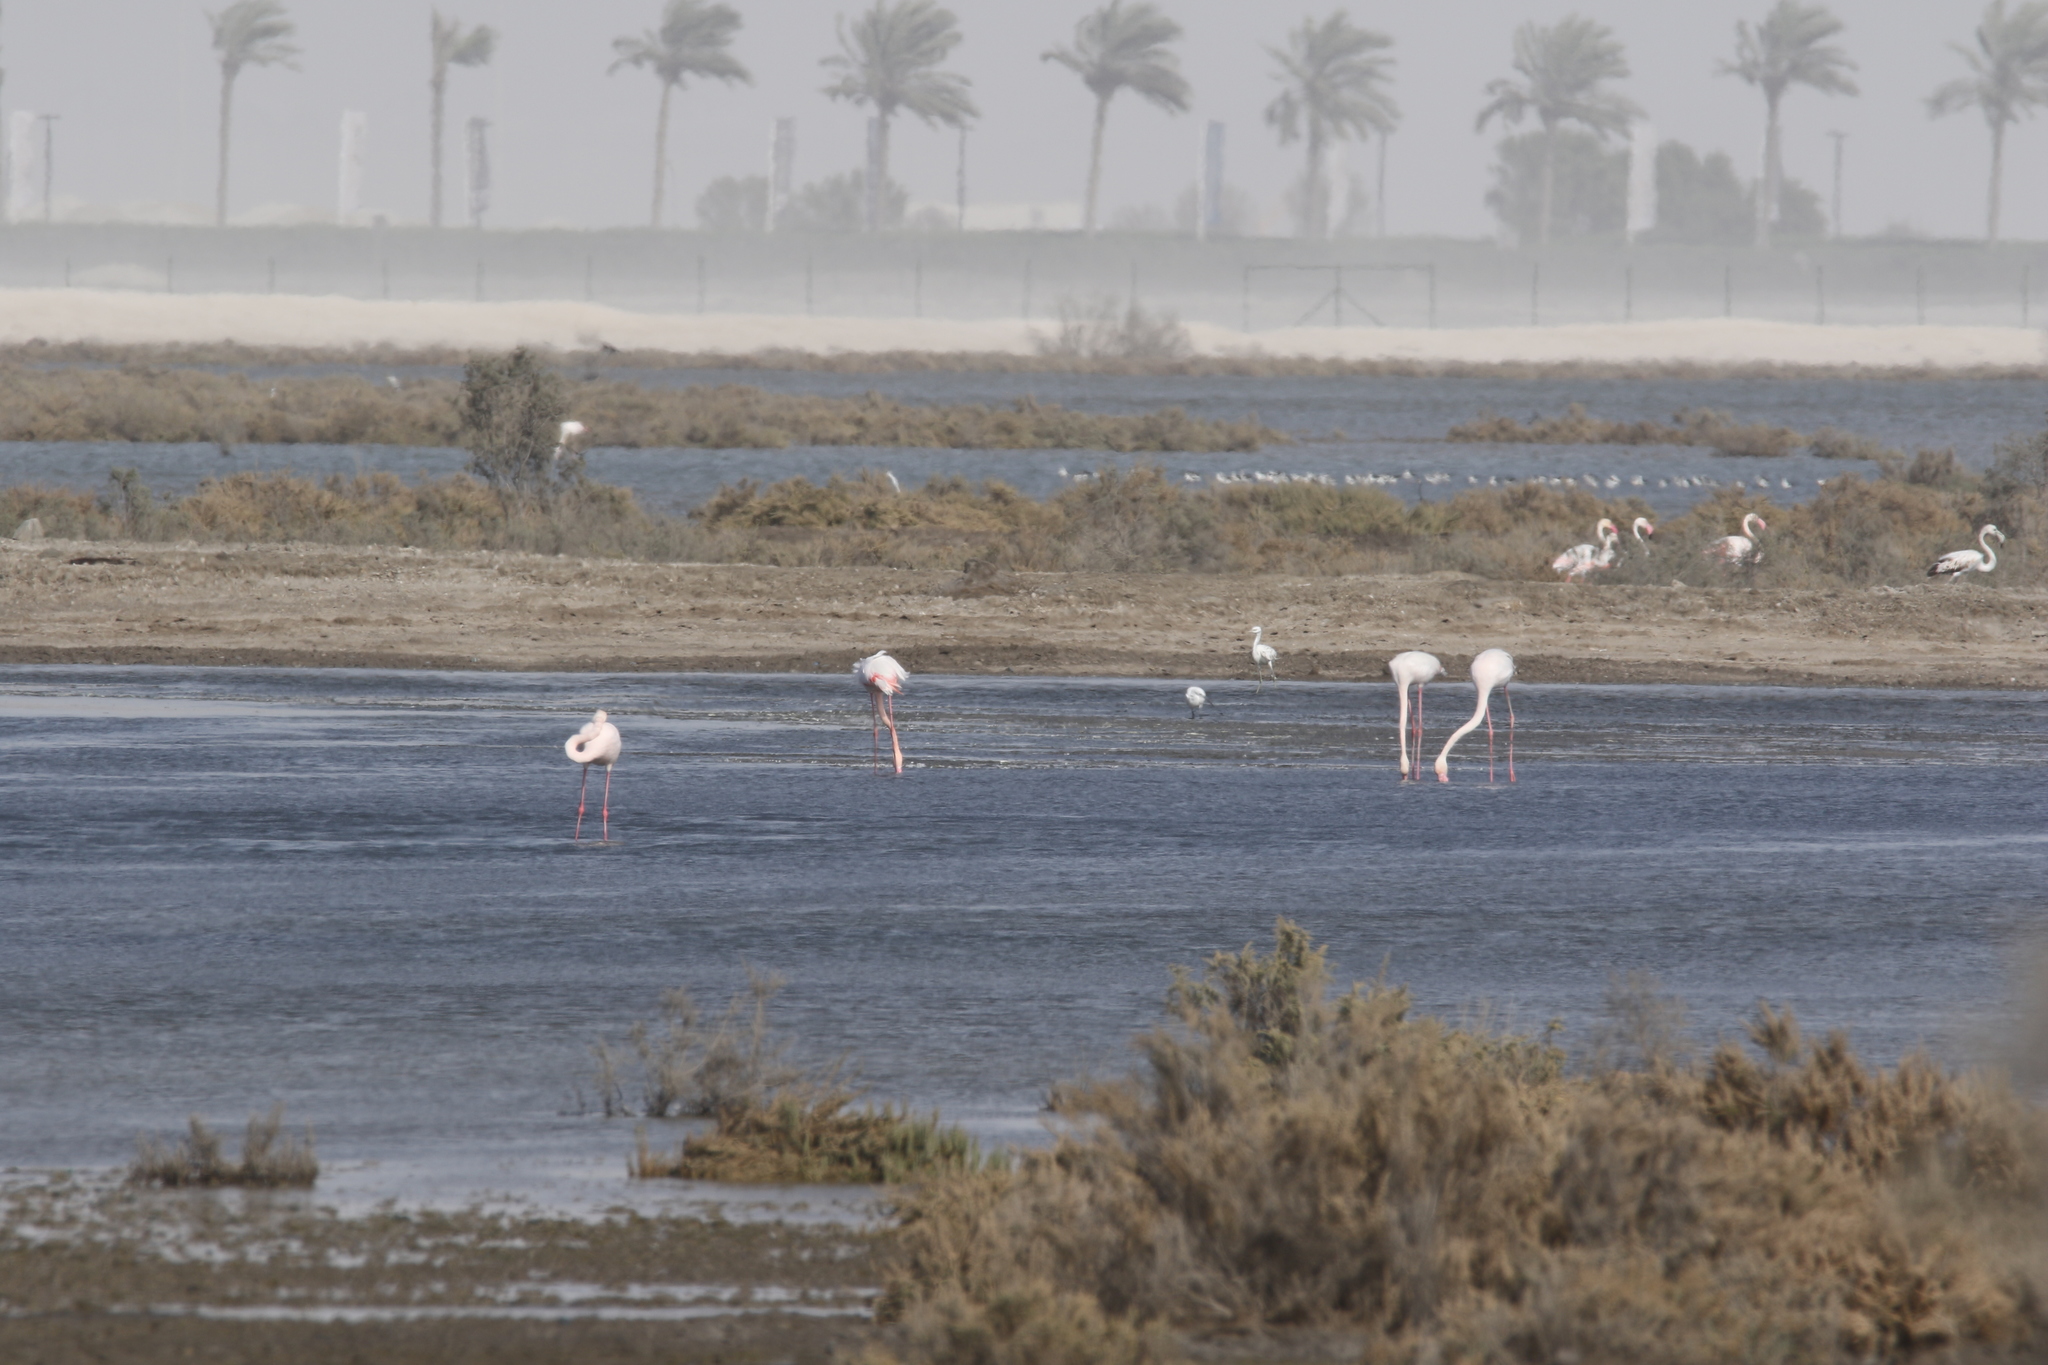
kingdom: Animalia
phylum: Chordata
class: Aves
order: Phoenicopteriformes
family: Phoenicopteridae
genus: Phoenicopterus
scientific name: Phoenicopterus roseus
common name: Greater flamingo
